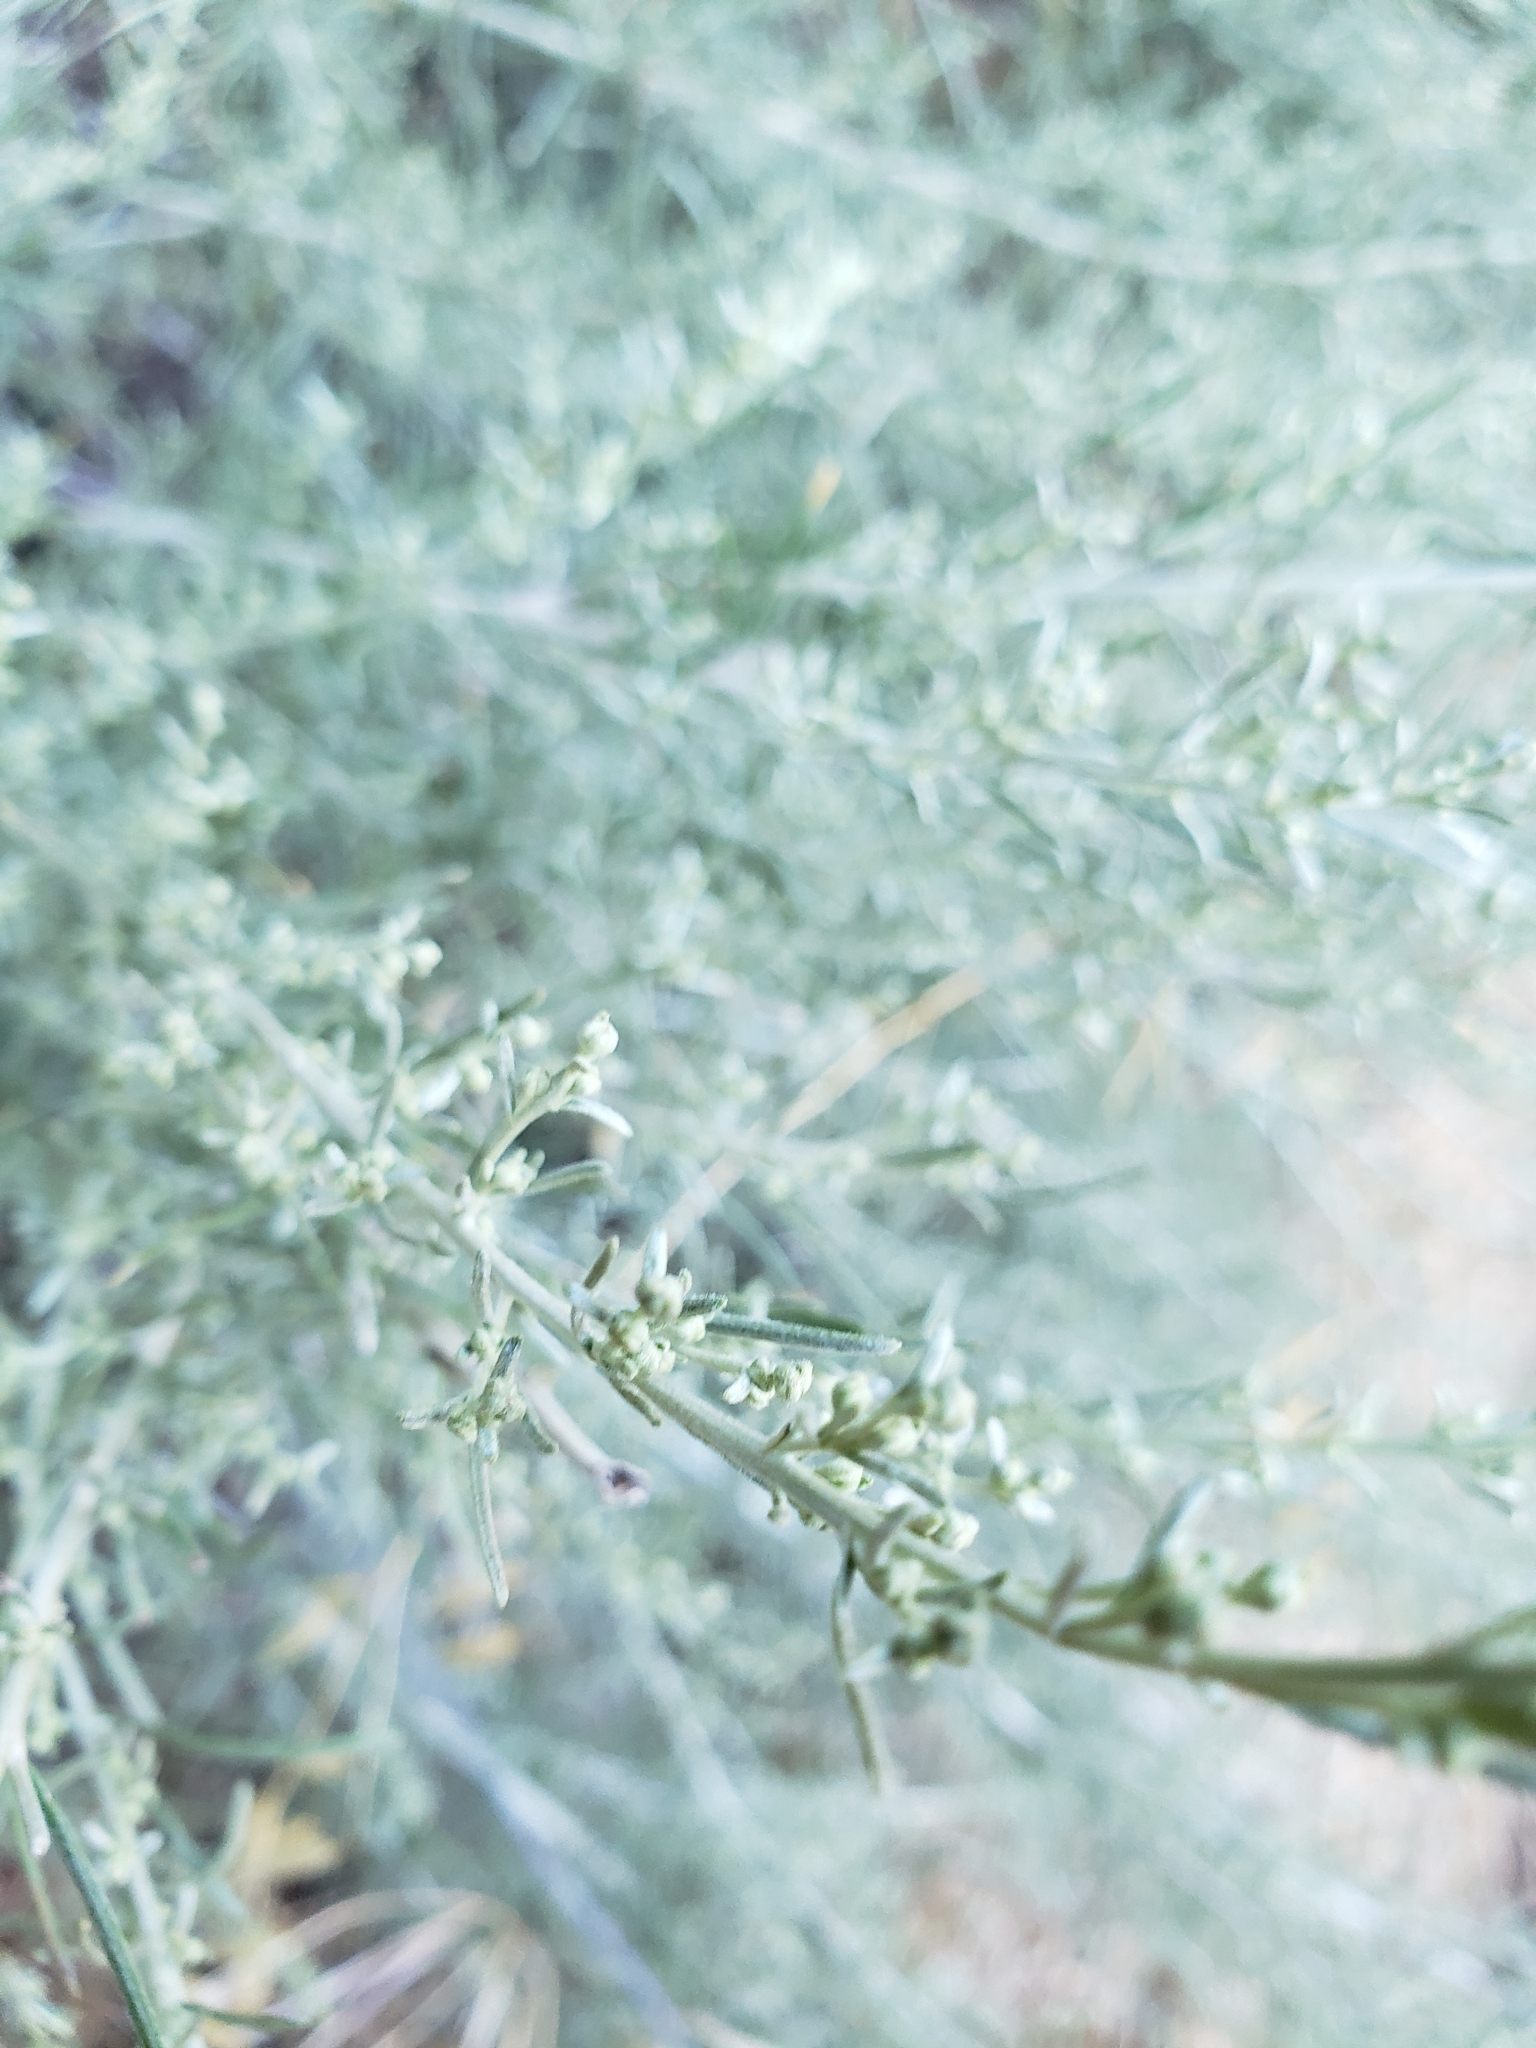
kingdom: Plantae
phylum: Tracheophyta
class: Magnoliopsida
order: Asterales
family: Asteraceae
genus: Artemisia
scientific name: Artemisia californica
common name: California sagebrush
